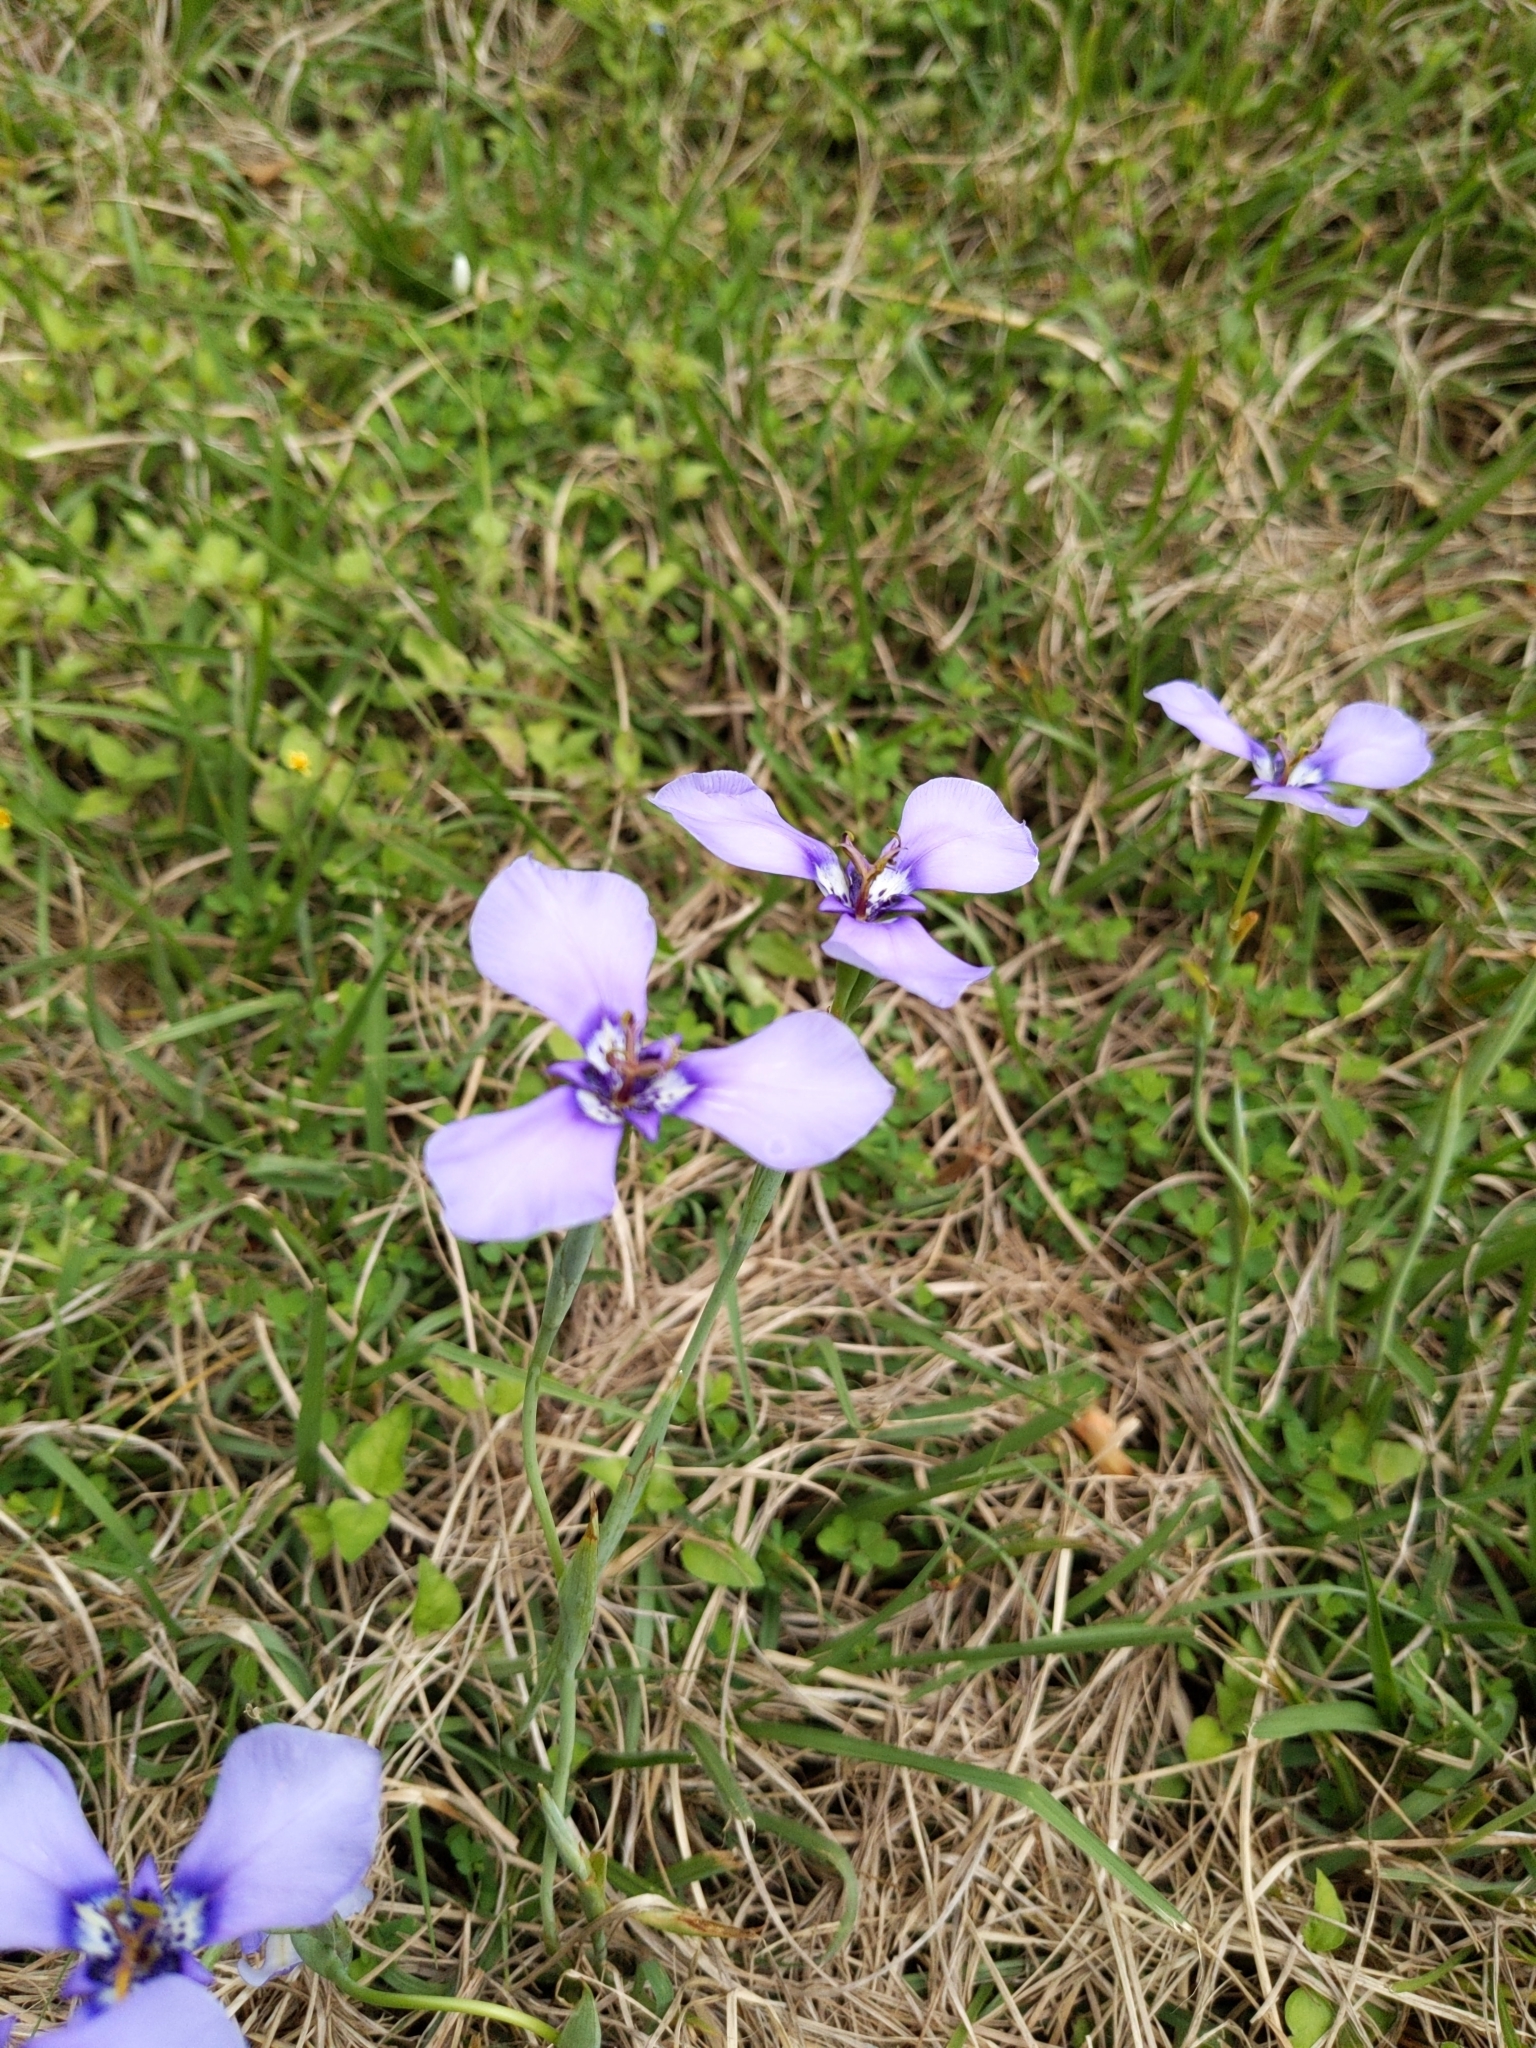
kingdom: Plantae
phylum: Tracheophyta
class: Liliopsida
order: Asparagales
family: Iridaceae
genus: Herbertia
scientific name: Herbertia lahue
